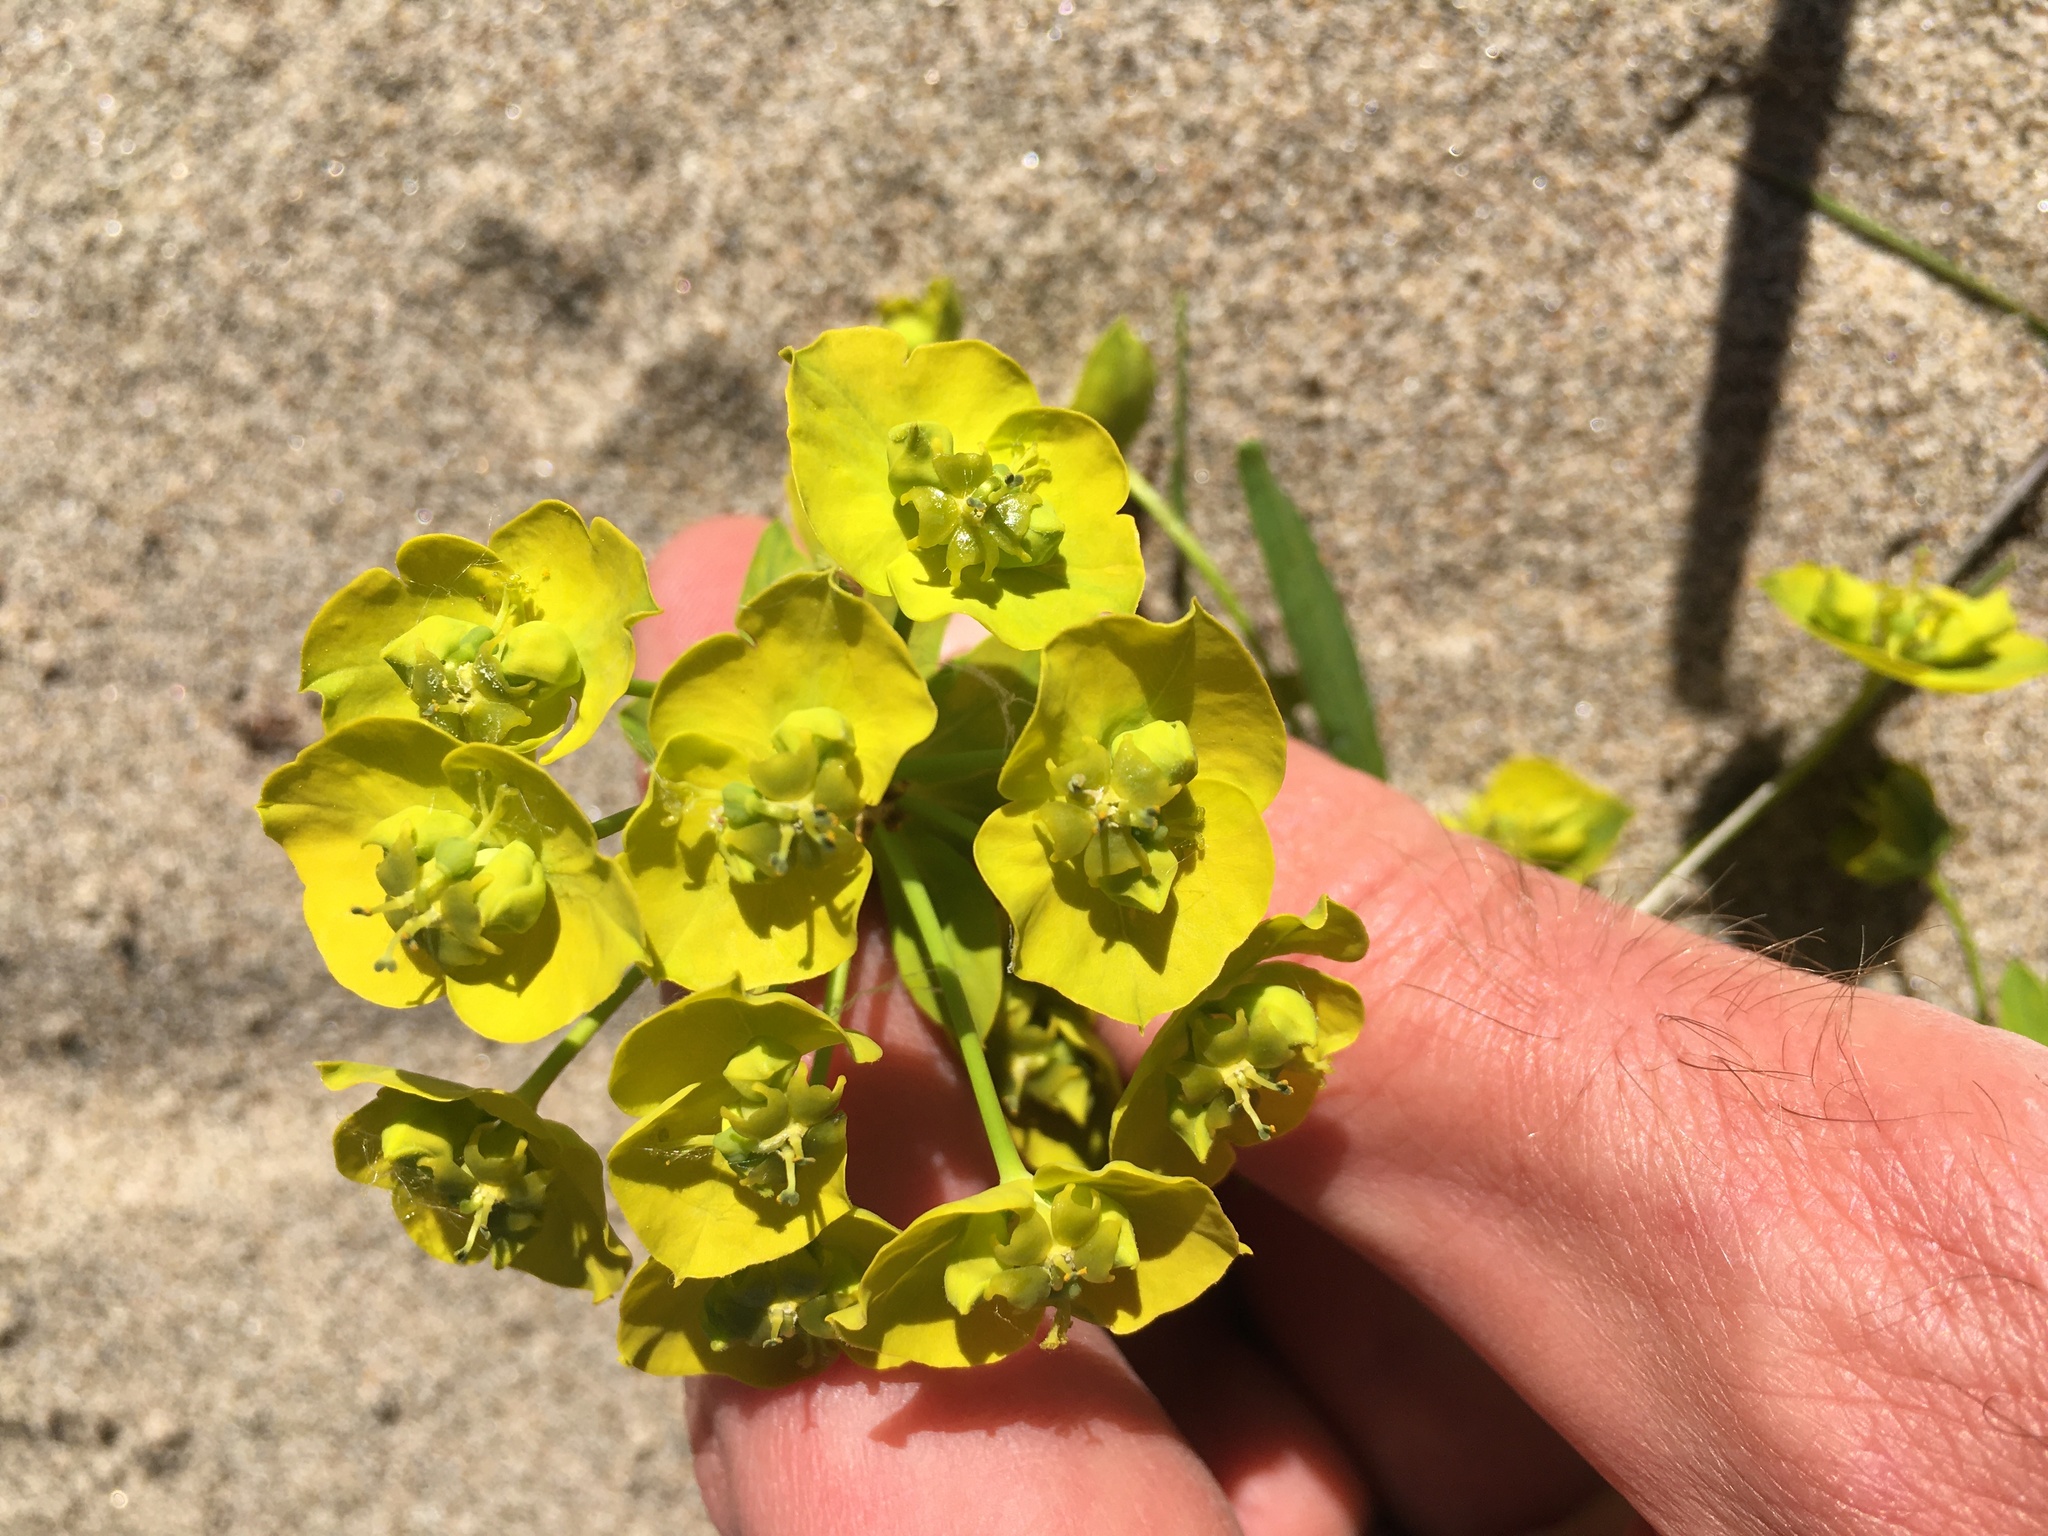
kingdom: Plantae
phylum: Tracheophyta
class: Magnoliopsida
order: Malpighiales
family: Euphorbiaceae
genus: Euphorbia
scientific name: Euphorbia virgata
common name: Leafy spurge
